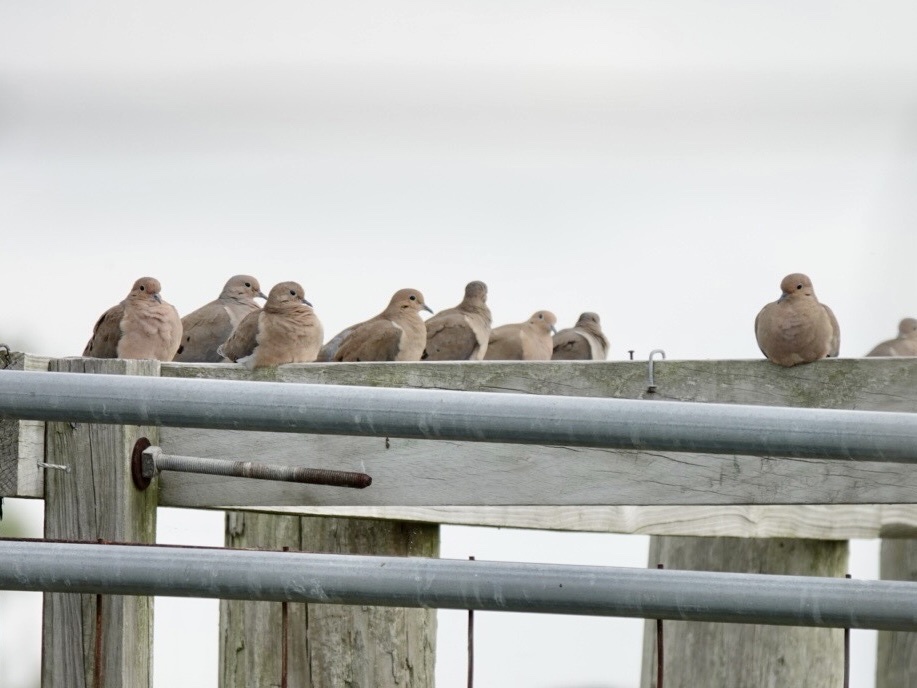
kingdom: Animalia
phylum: Chordata
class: Aves
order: Columbiformes
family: Columbidae
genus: Zenaida
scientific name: Zenaida macroura
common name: Mourning dove
